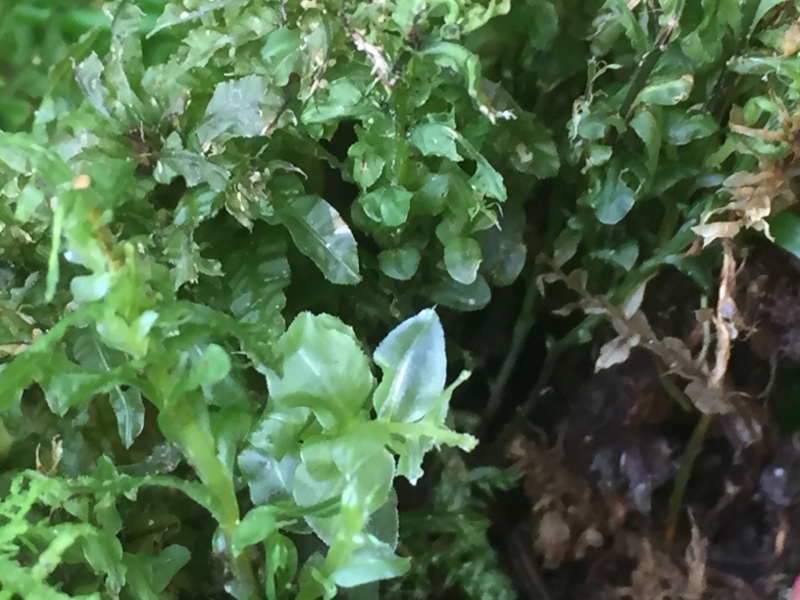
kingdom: Plantae
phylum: Bryophyta
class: Bryopsida
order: Bryales
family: Mniaceae
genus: Plagiomnium
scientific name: Plagiomnium undulatum
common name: Hart's-tongue thyme-moss
